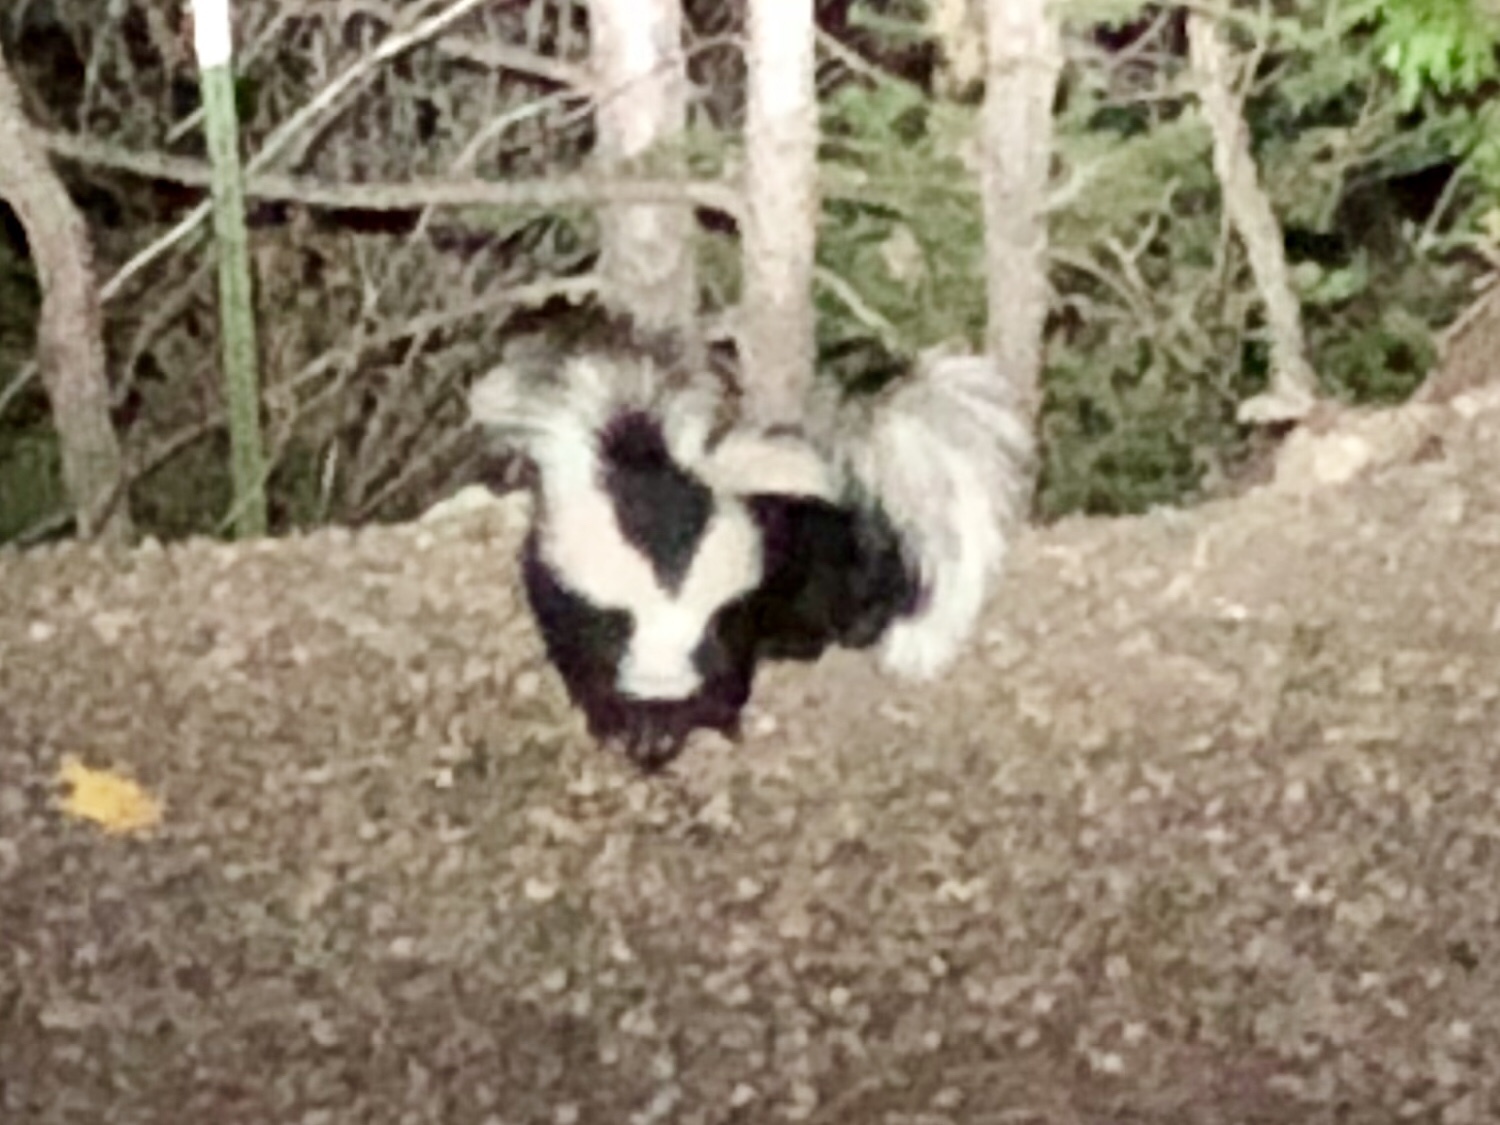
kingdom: Animalia
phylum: Chordata
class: Mammalia
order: Carnivora
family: Mephitidae
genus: Mephitis
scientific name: Mephitis mephitis
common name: Striped skunk
